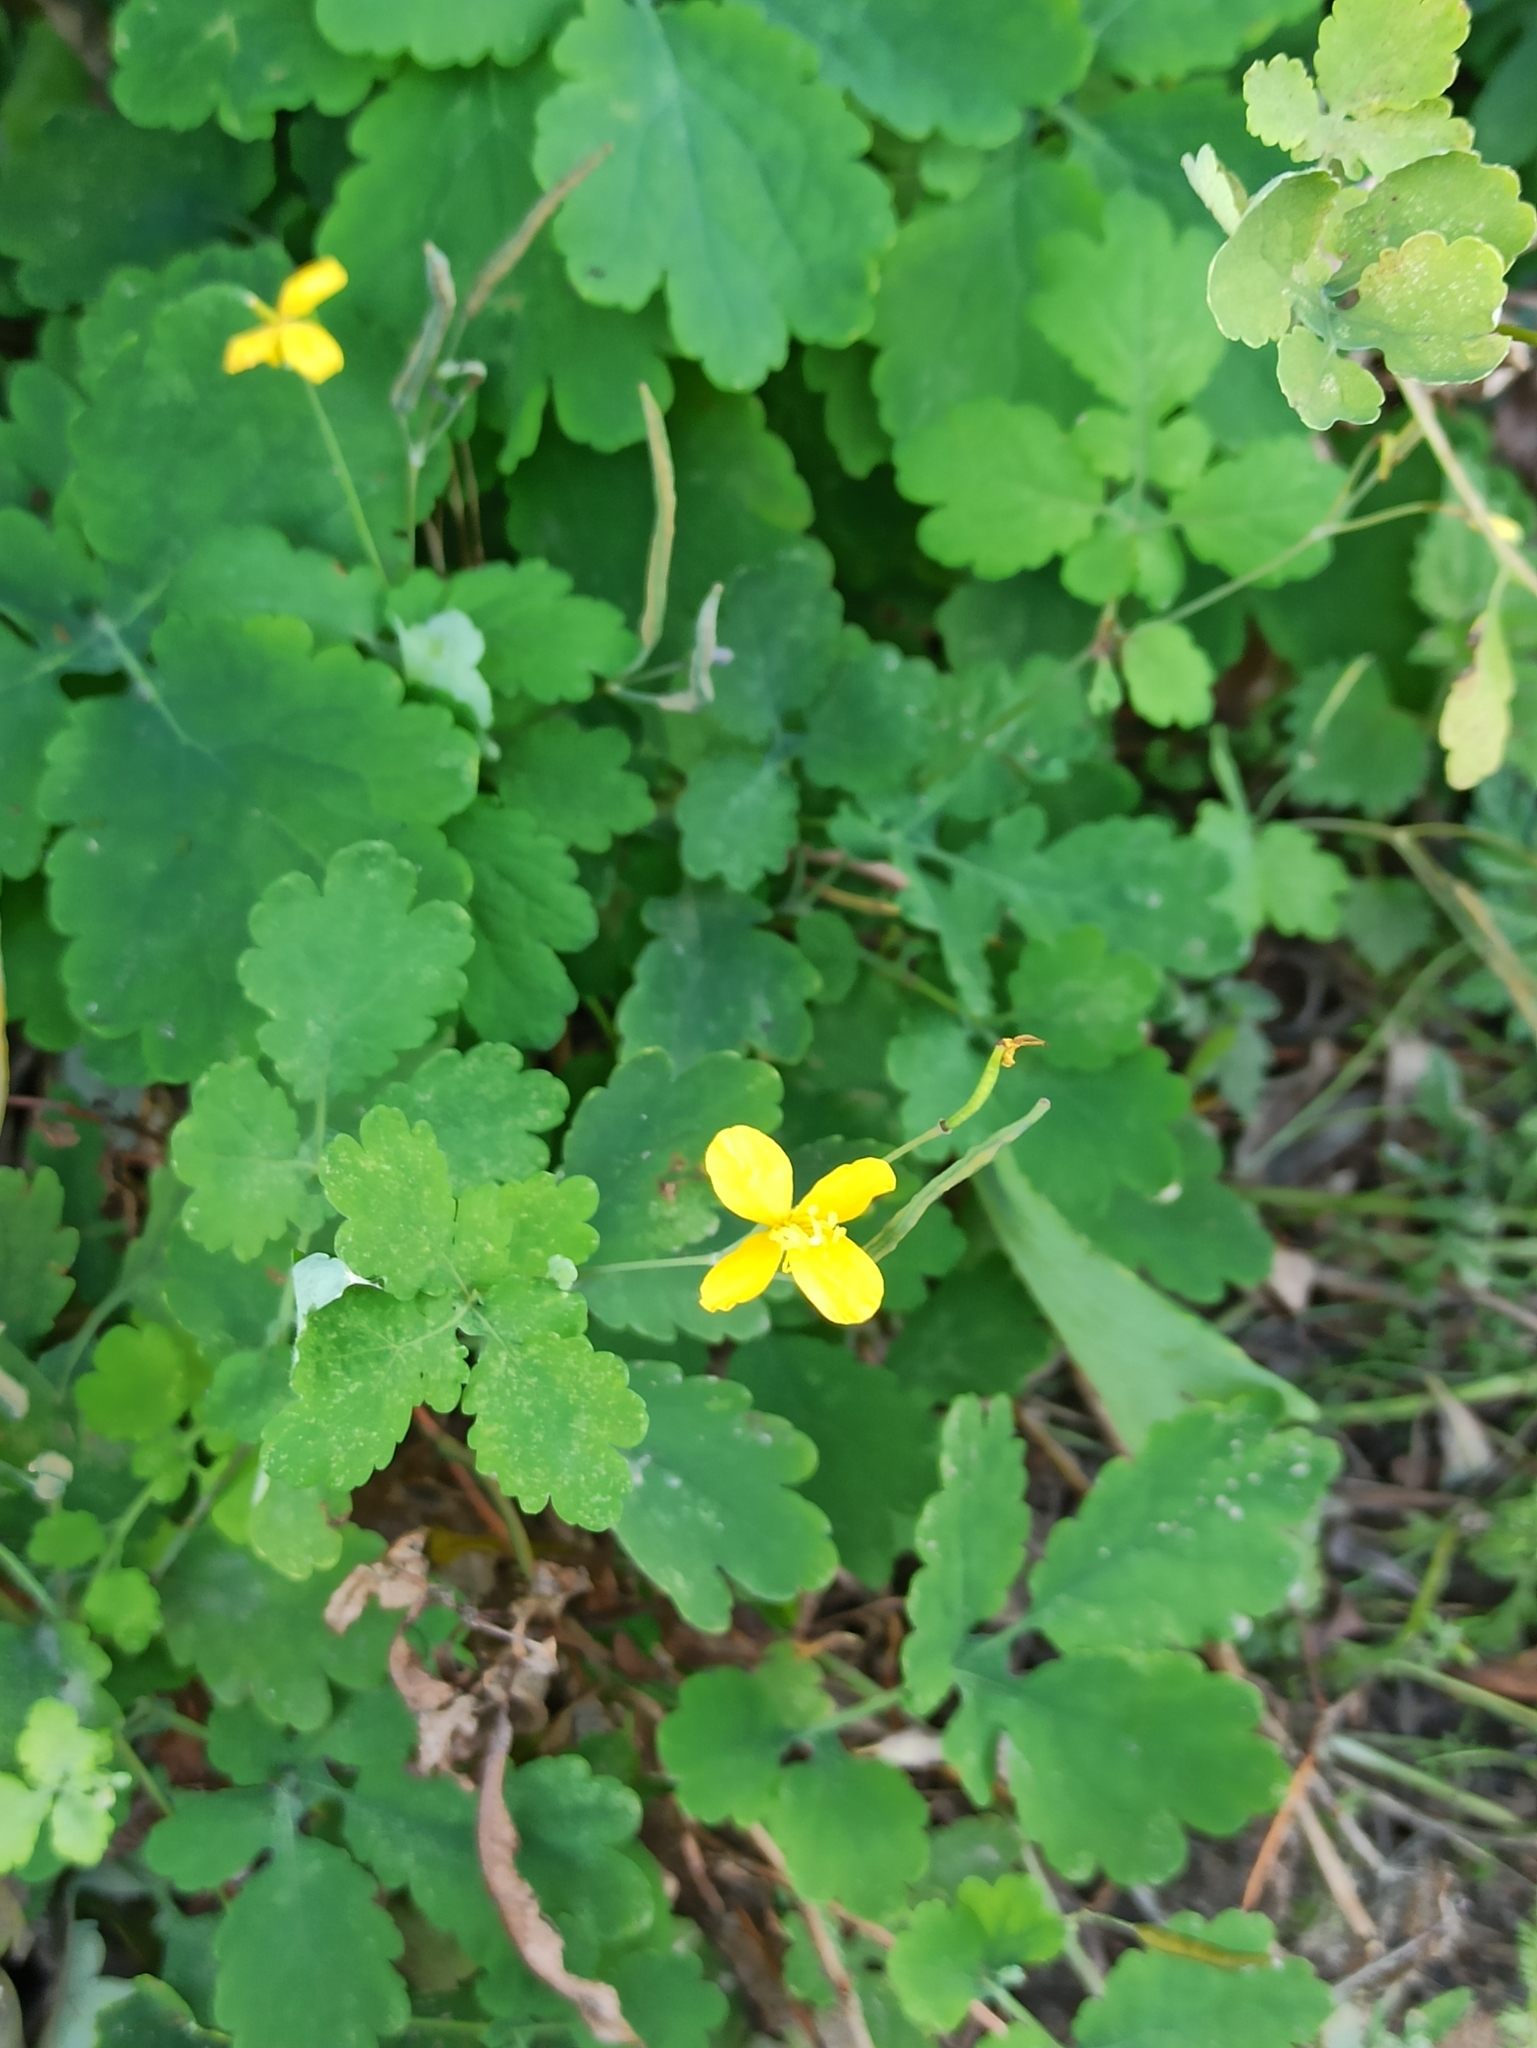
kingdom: Plantae
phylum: Tracheophyta
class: Magnoliopsida
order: Ranunculales
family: Papaveraceae
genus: Chelidonium
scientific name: Chelidonium majus
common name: Greater celandine
